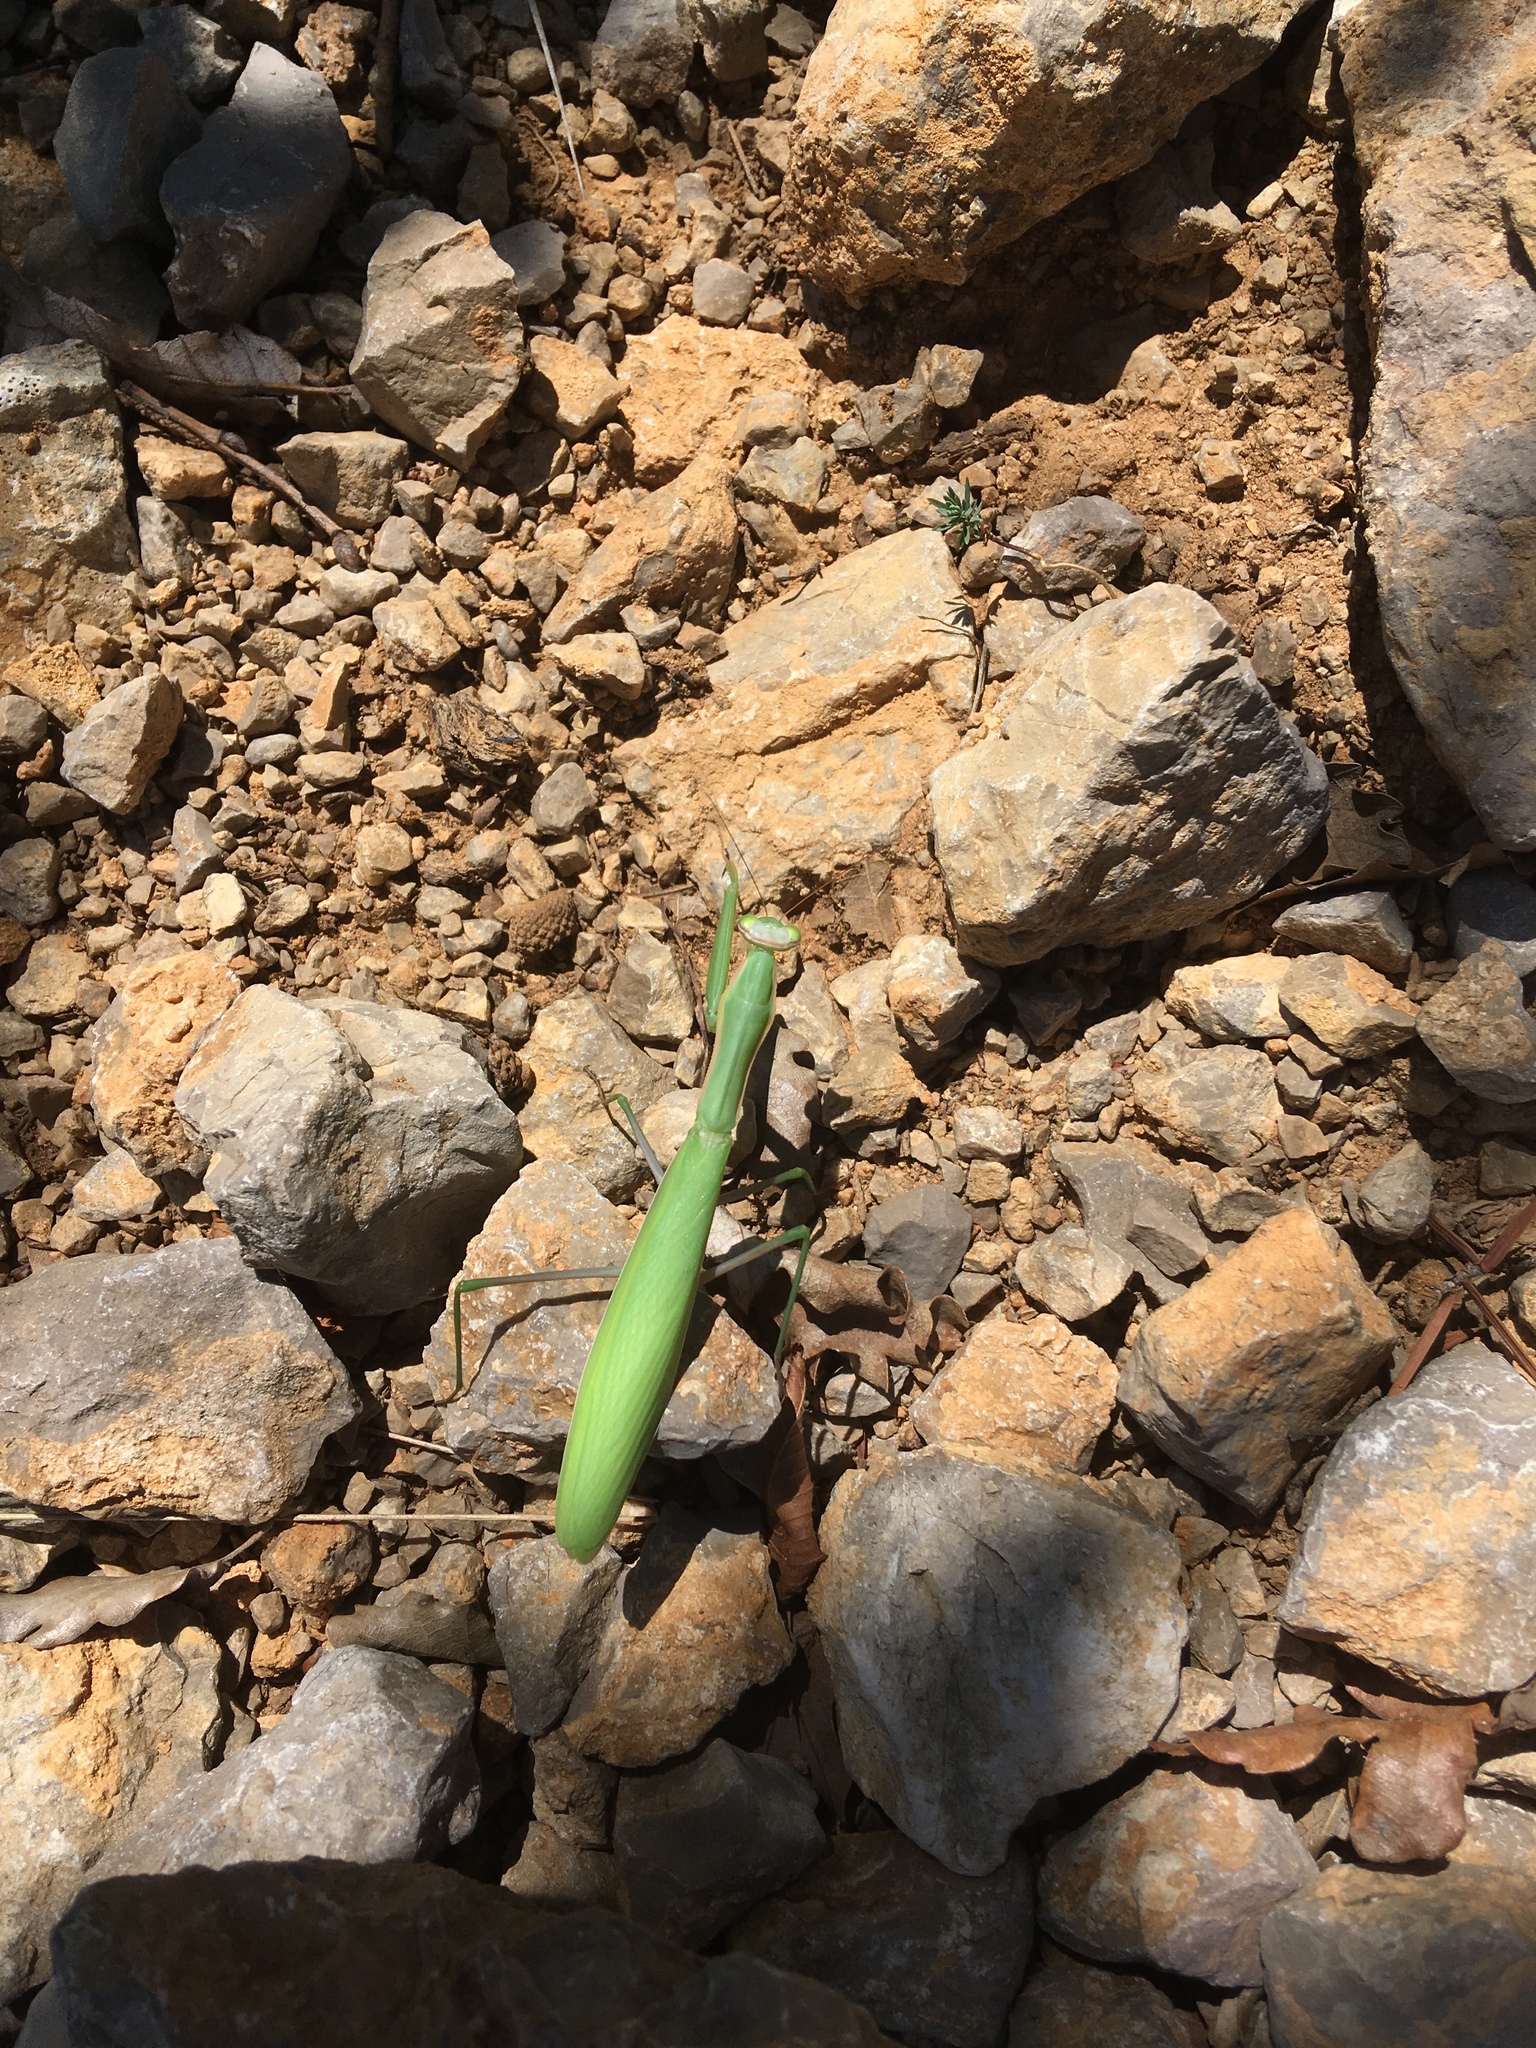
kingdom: Animalia
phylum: Arthropoda
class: Insecta
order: Mantodea
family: Mantidae
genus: Mantis
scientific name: Mantis religiosa
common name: Praying mantis
